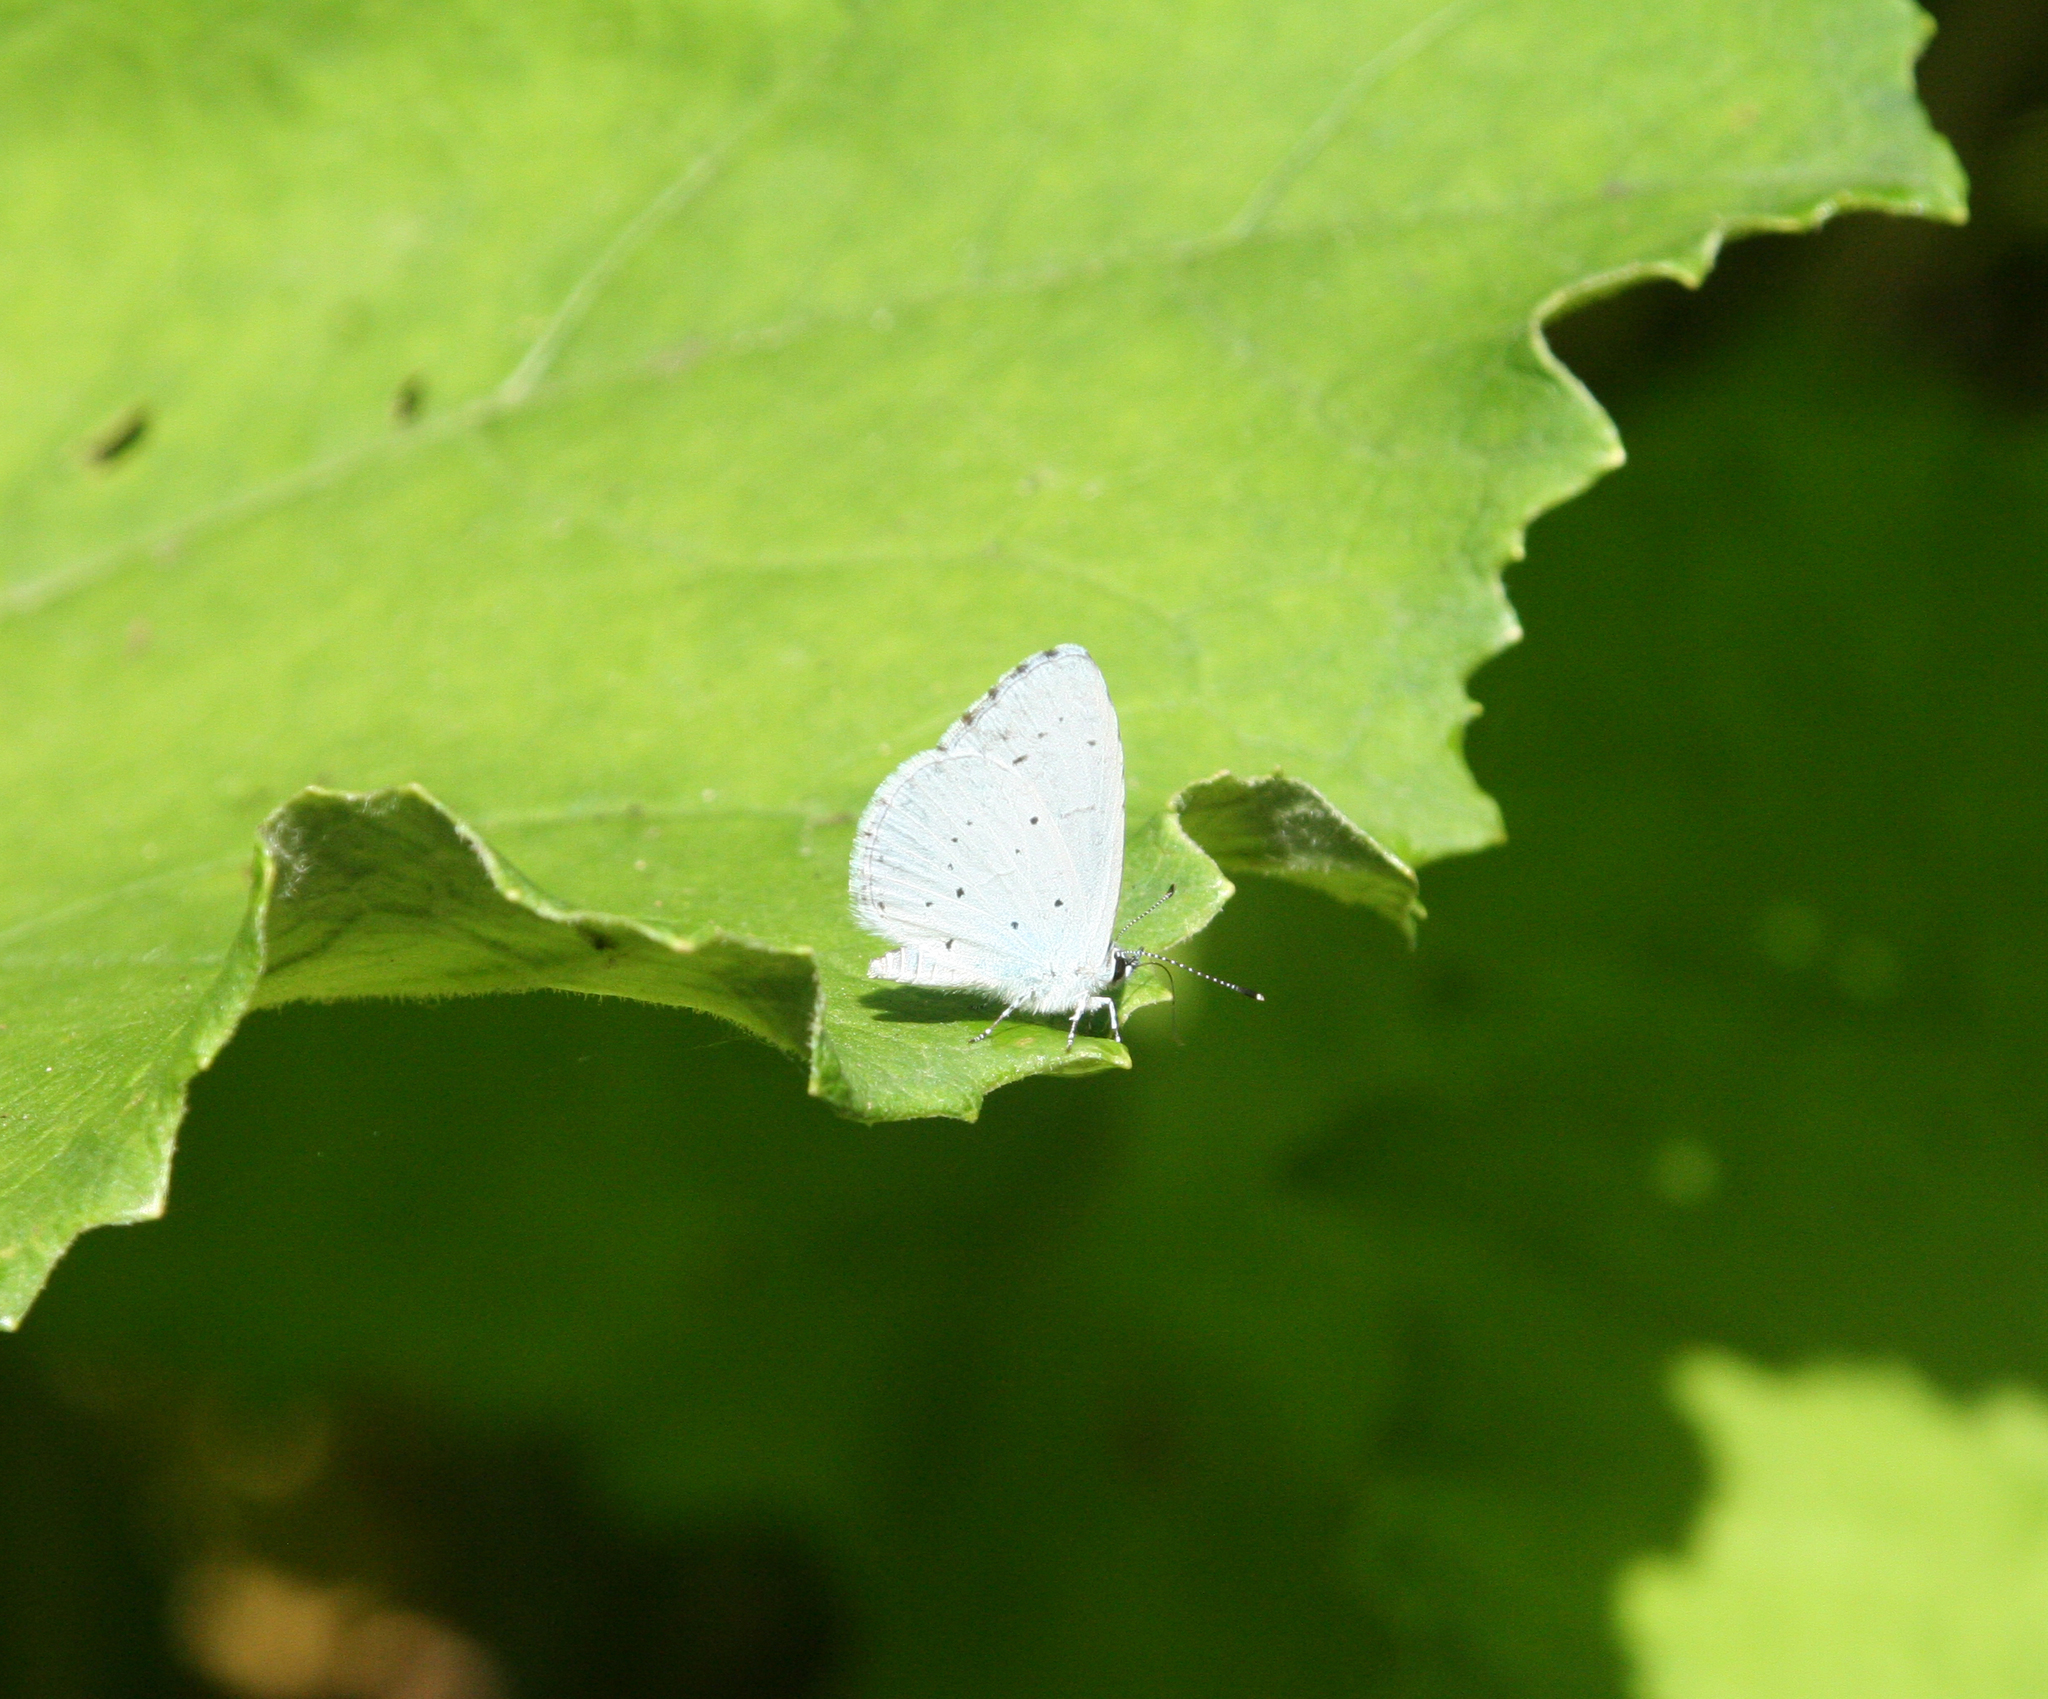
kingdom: Animalia
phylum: Arthropoda
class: Insecta
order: Lepidoptera
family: Lycaenidae
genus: Celastrina
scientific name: Celastrina argiolus
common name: Holly blue
